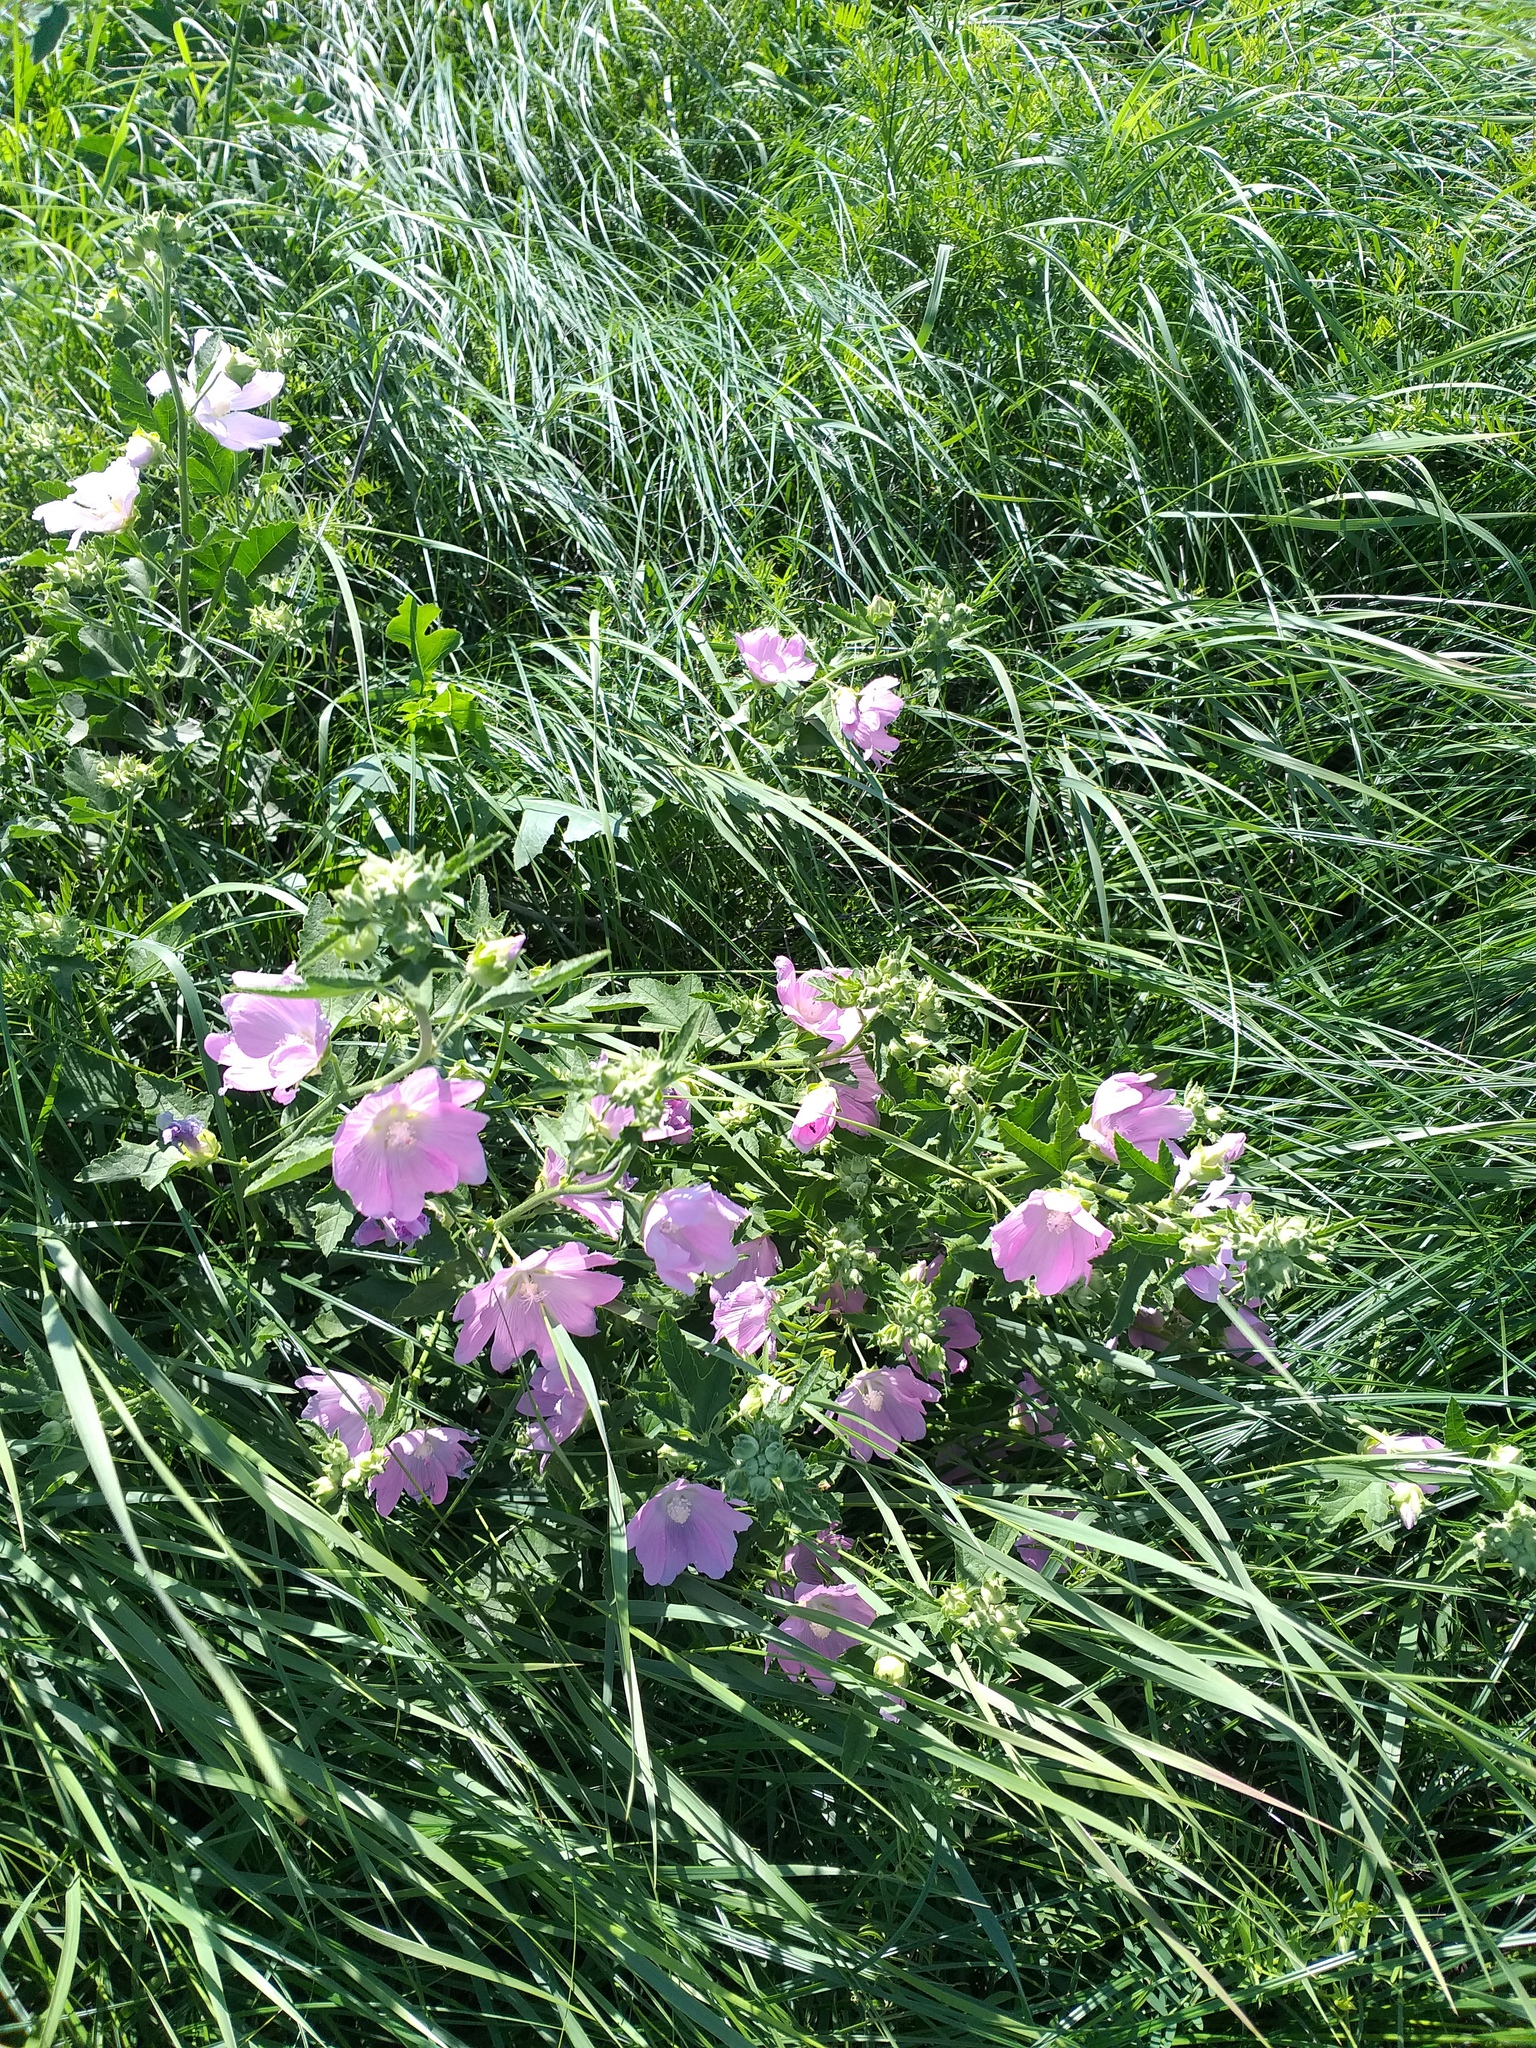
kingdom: Plantae
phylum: Tracheophyta
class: Magnoliopsida
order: Malvales
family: Malvaceae
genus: Malva
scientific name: Malva thuringiaca
